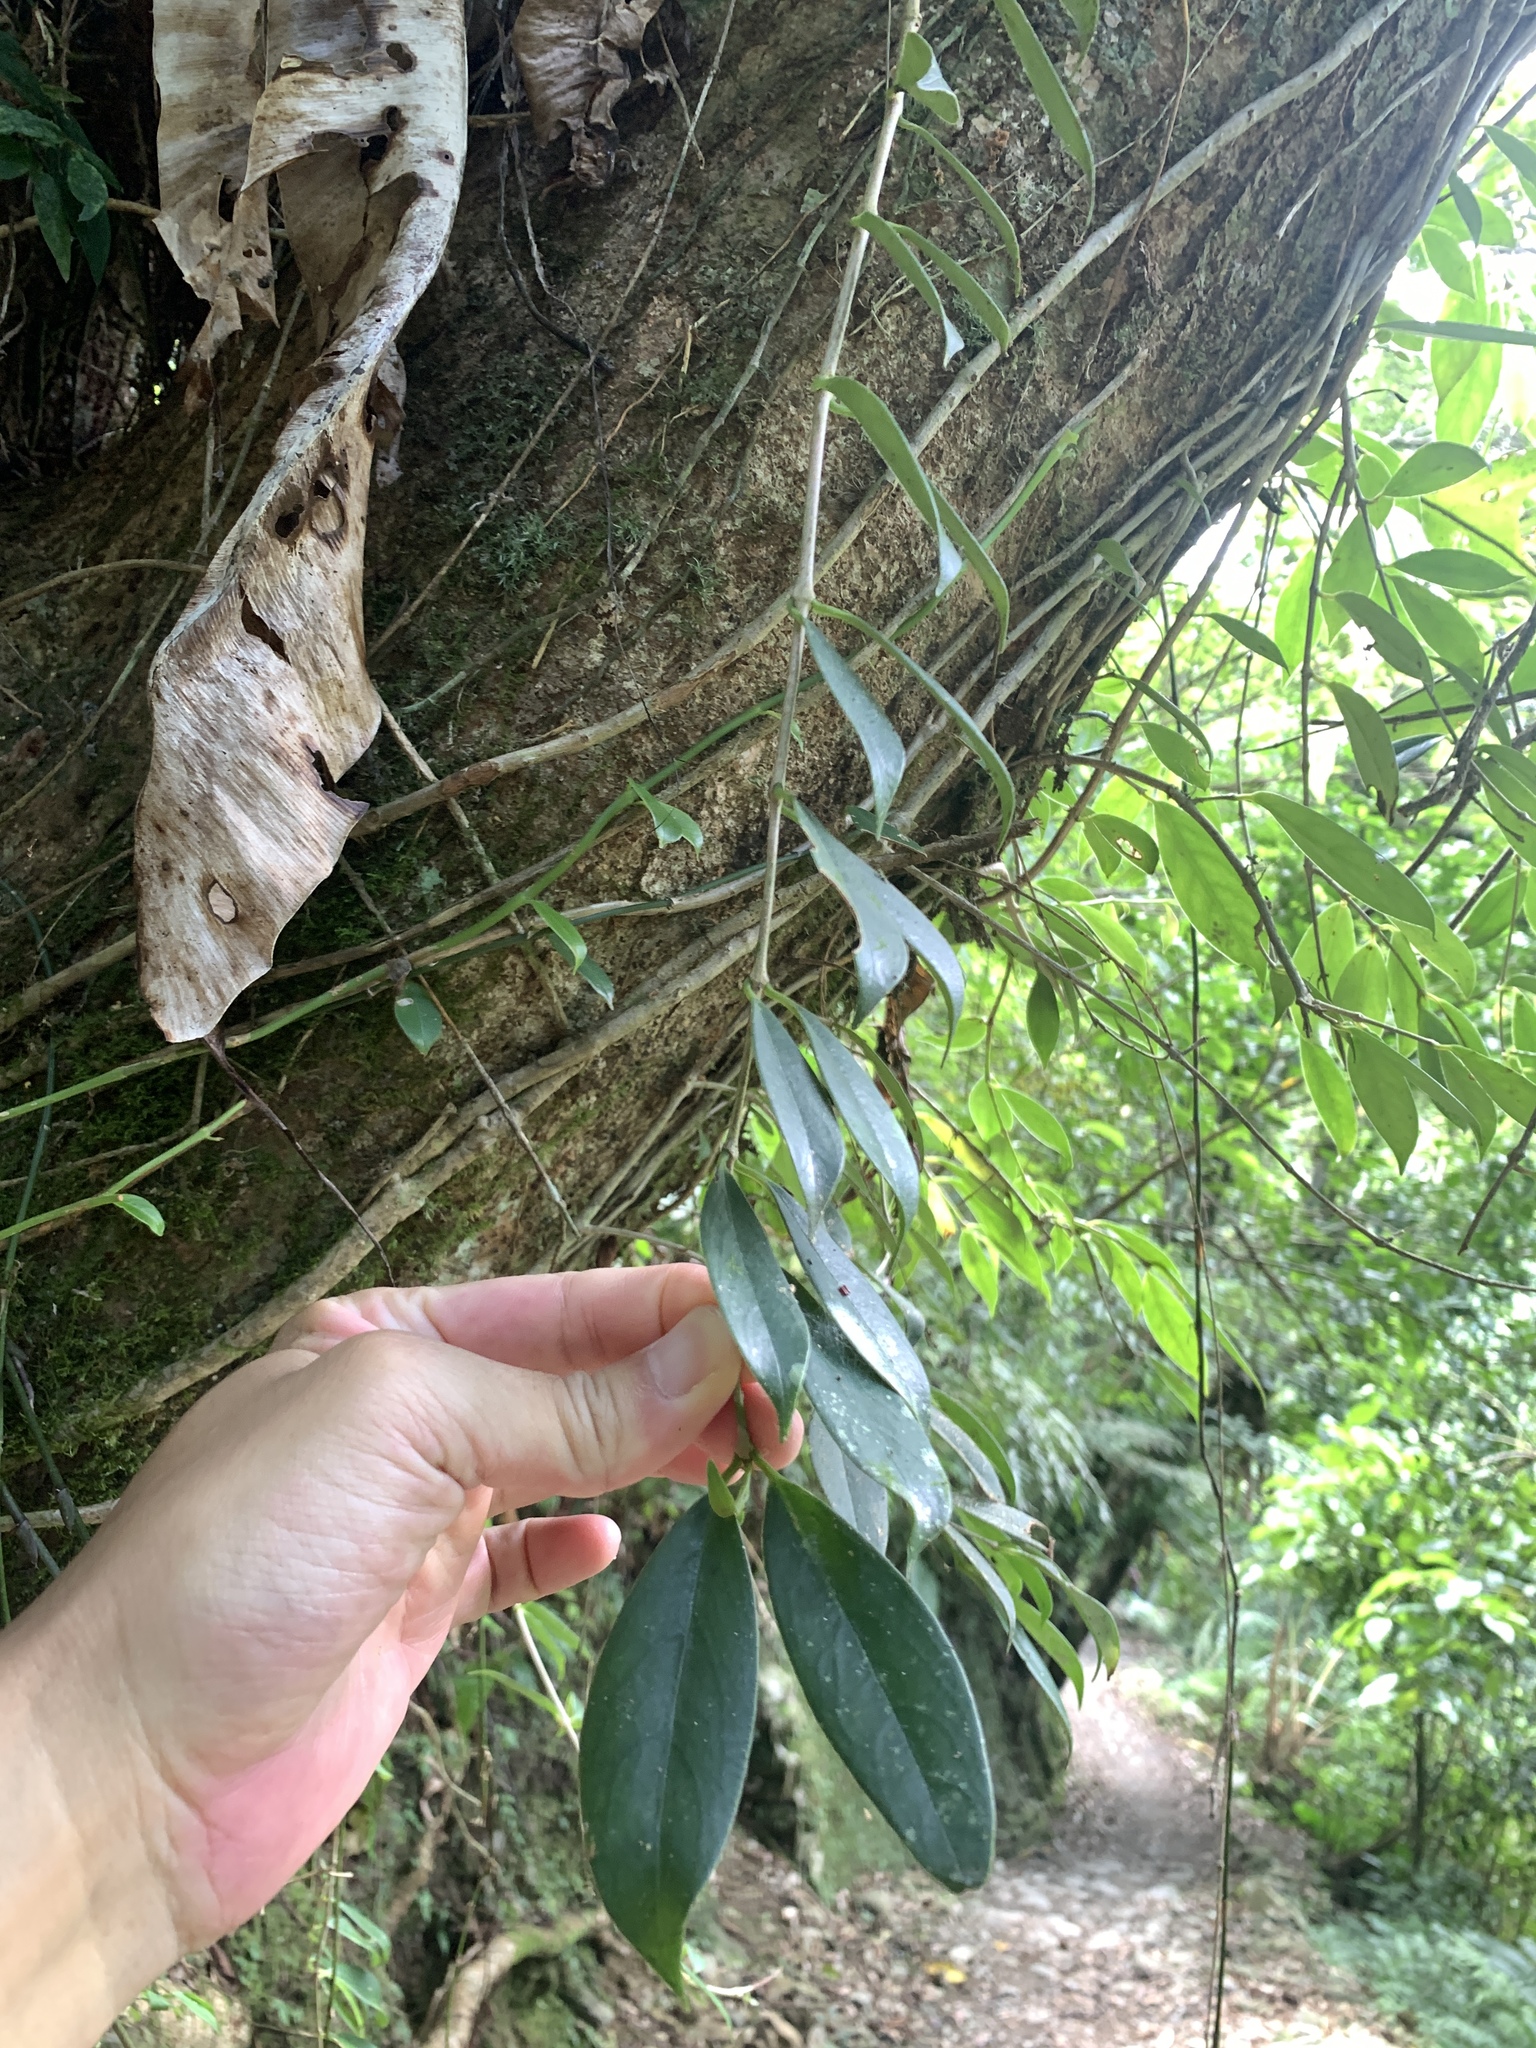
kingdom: Plantae
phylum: Tracheophyta
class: Magnoliopsida
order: Lamiales
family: Gesneriaceae
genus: Aeschynanthus
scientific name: Aeschynanthus acuminatus
